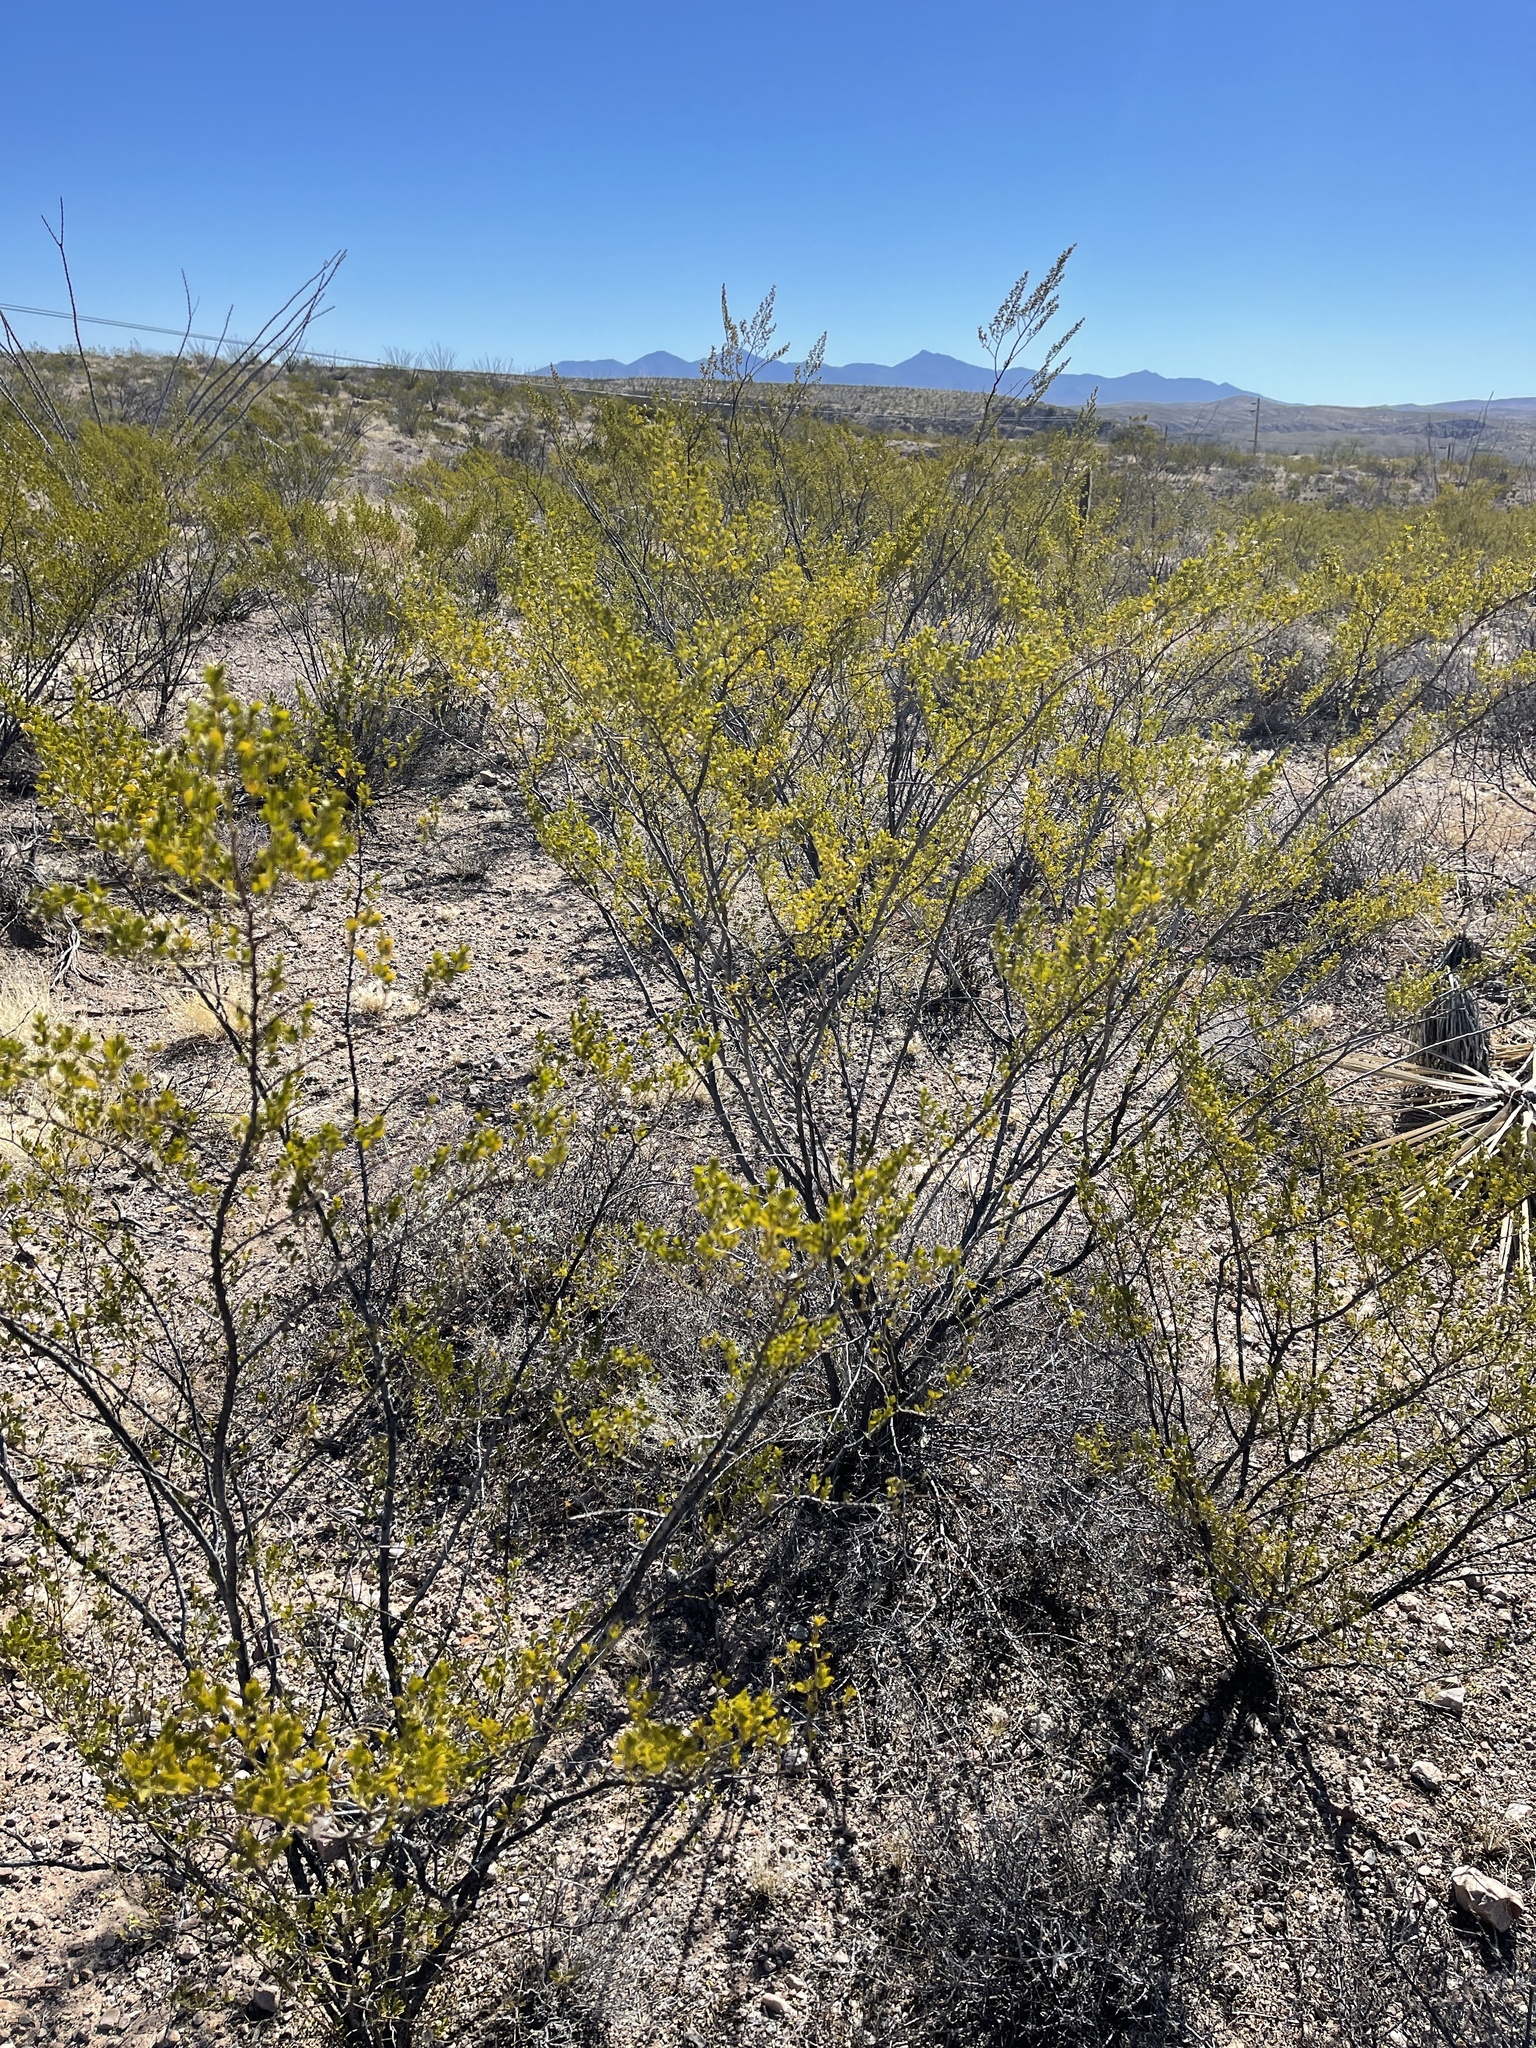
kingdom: Plantae
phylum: Tracheophyta
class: Magnoliopsida
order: Zygophyllales
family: Zygophyllaceae
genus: Larrea
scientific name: Larrea tridentata
